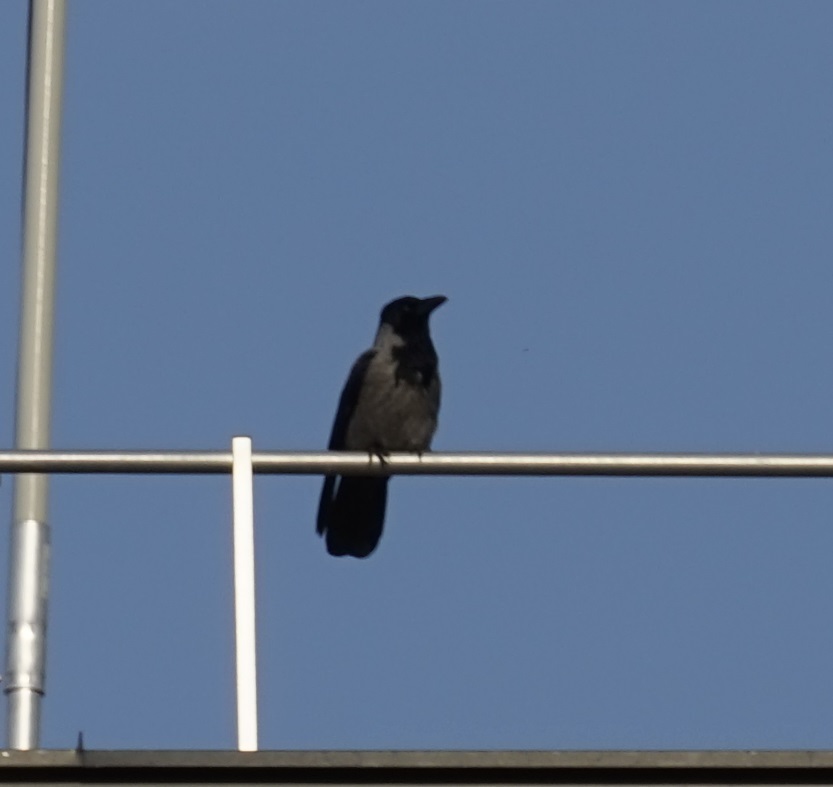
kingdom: Animalia
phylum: Chordata
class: Aves
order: Passeriformes
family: Corvidae
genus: Corvus
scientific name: Corvus cornix
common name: Hooded crow
